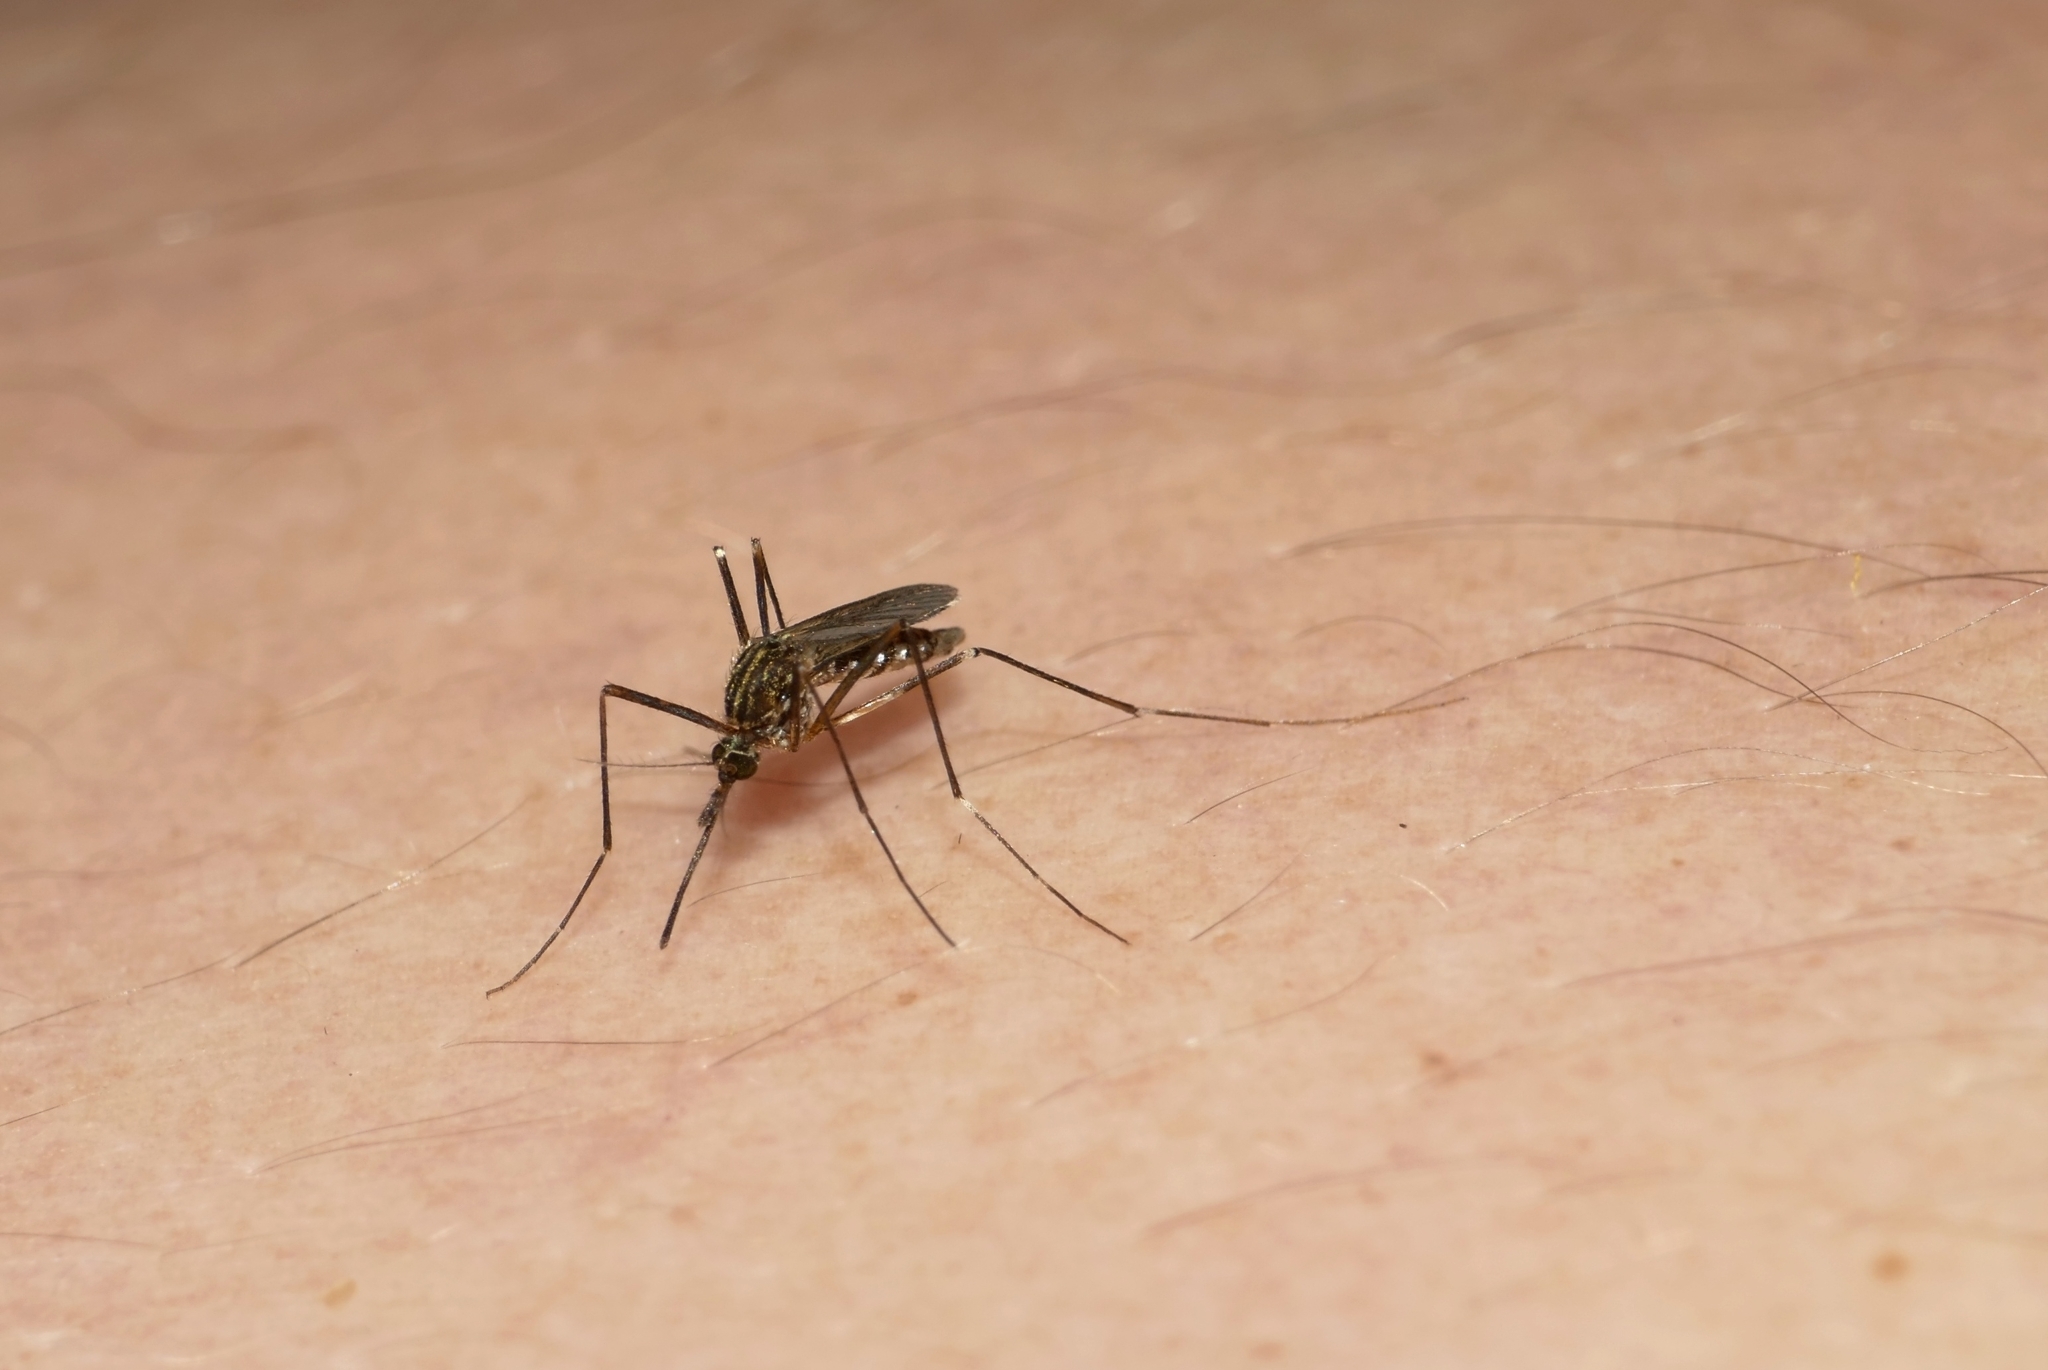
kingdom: Animalia
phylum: Arthropoda
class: Insecta
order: Diptera
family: Culicidae
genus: Aedes
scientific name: Aedes japonicus
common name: Asian bush mosquito
